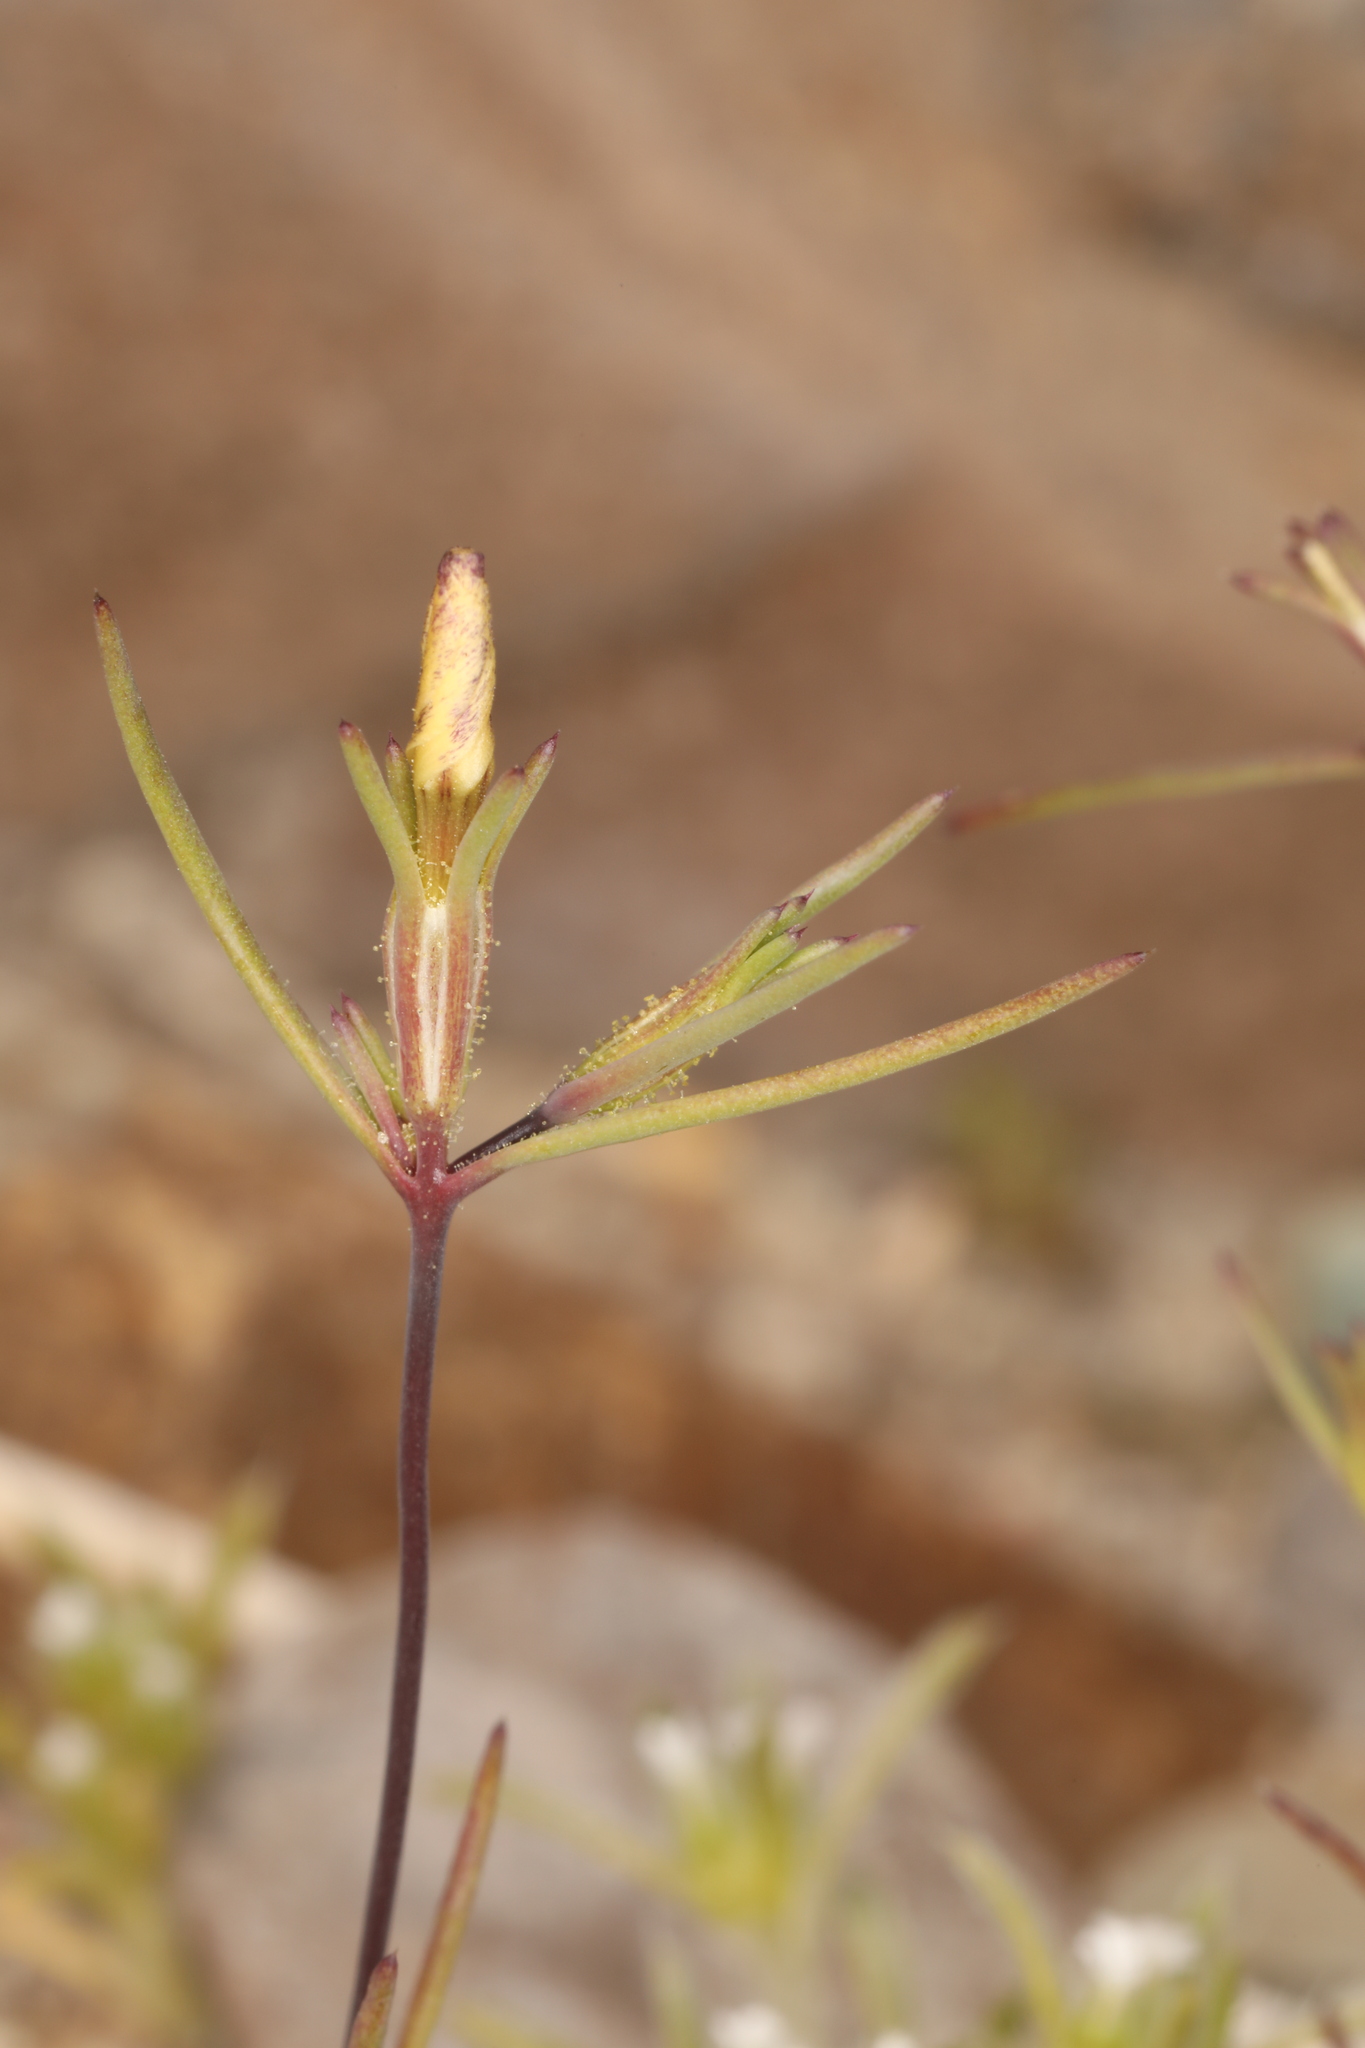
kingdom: Plantae
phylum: Tracheophyta
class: Magnoliopsida
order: Ericales
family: Polemoniaceae
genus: Linanthus
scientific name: Linanthus jonesii
